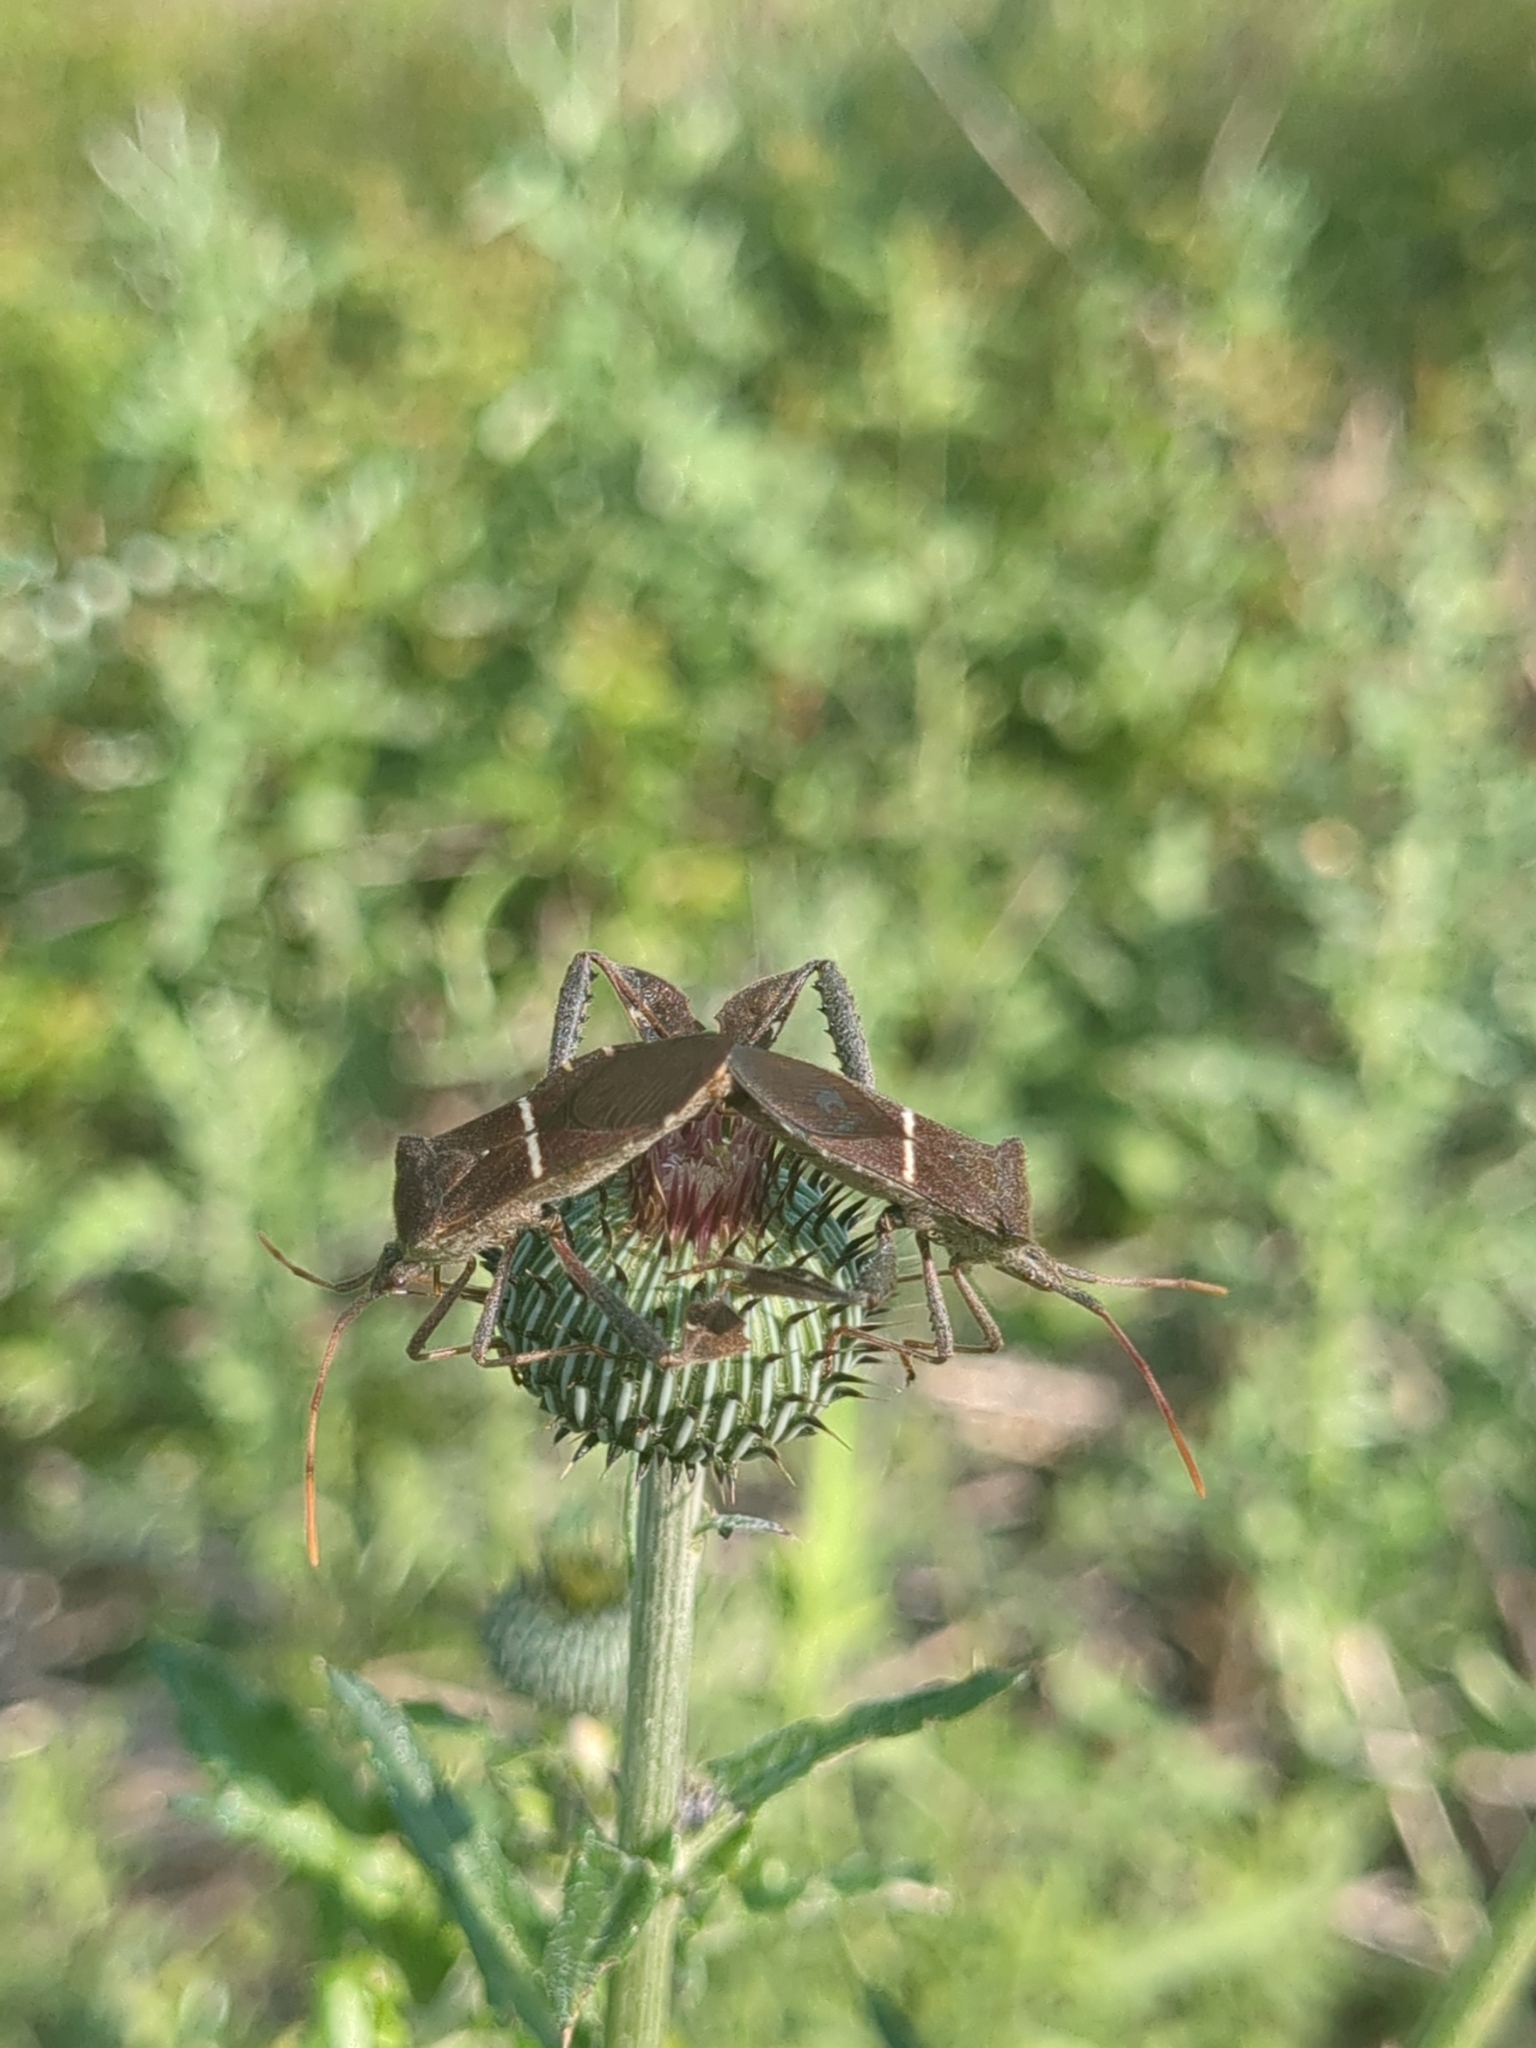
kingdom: Animalia
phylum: Arthropoda
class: Insecta
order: Hemiptera
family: Coreidae
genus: Leptoglossus
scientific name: Leptoglossus phyllopus
